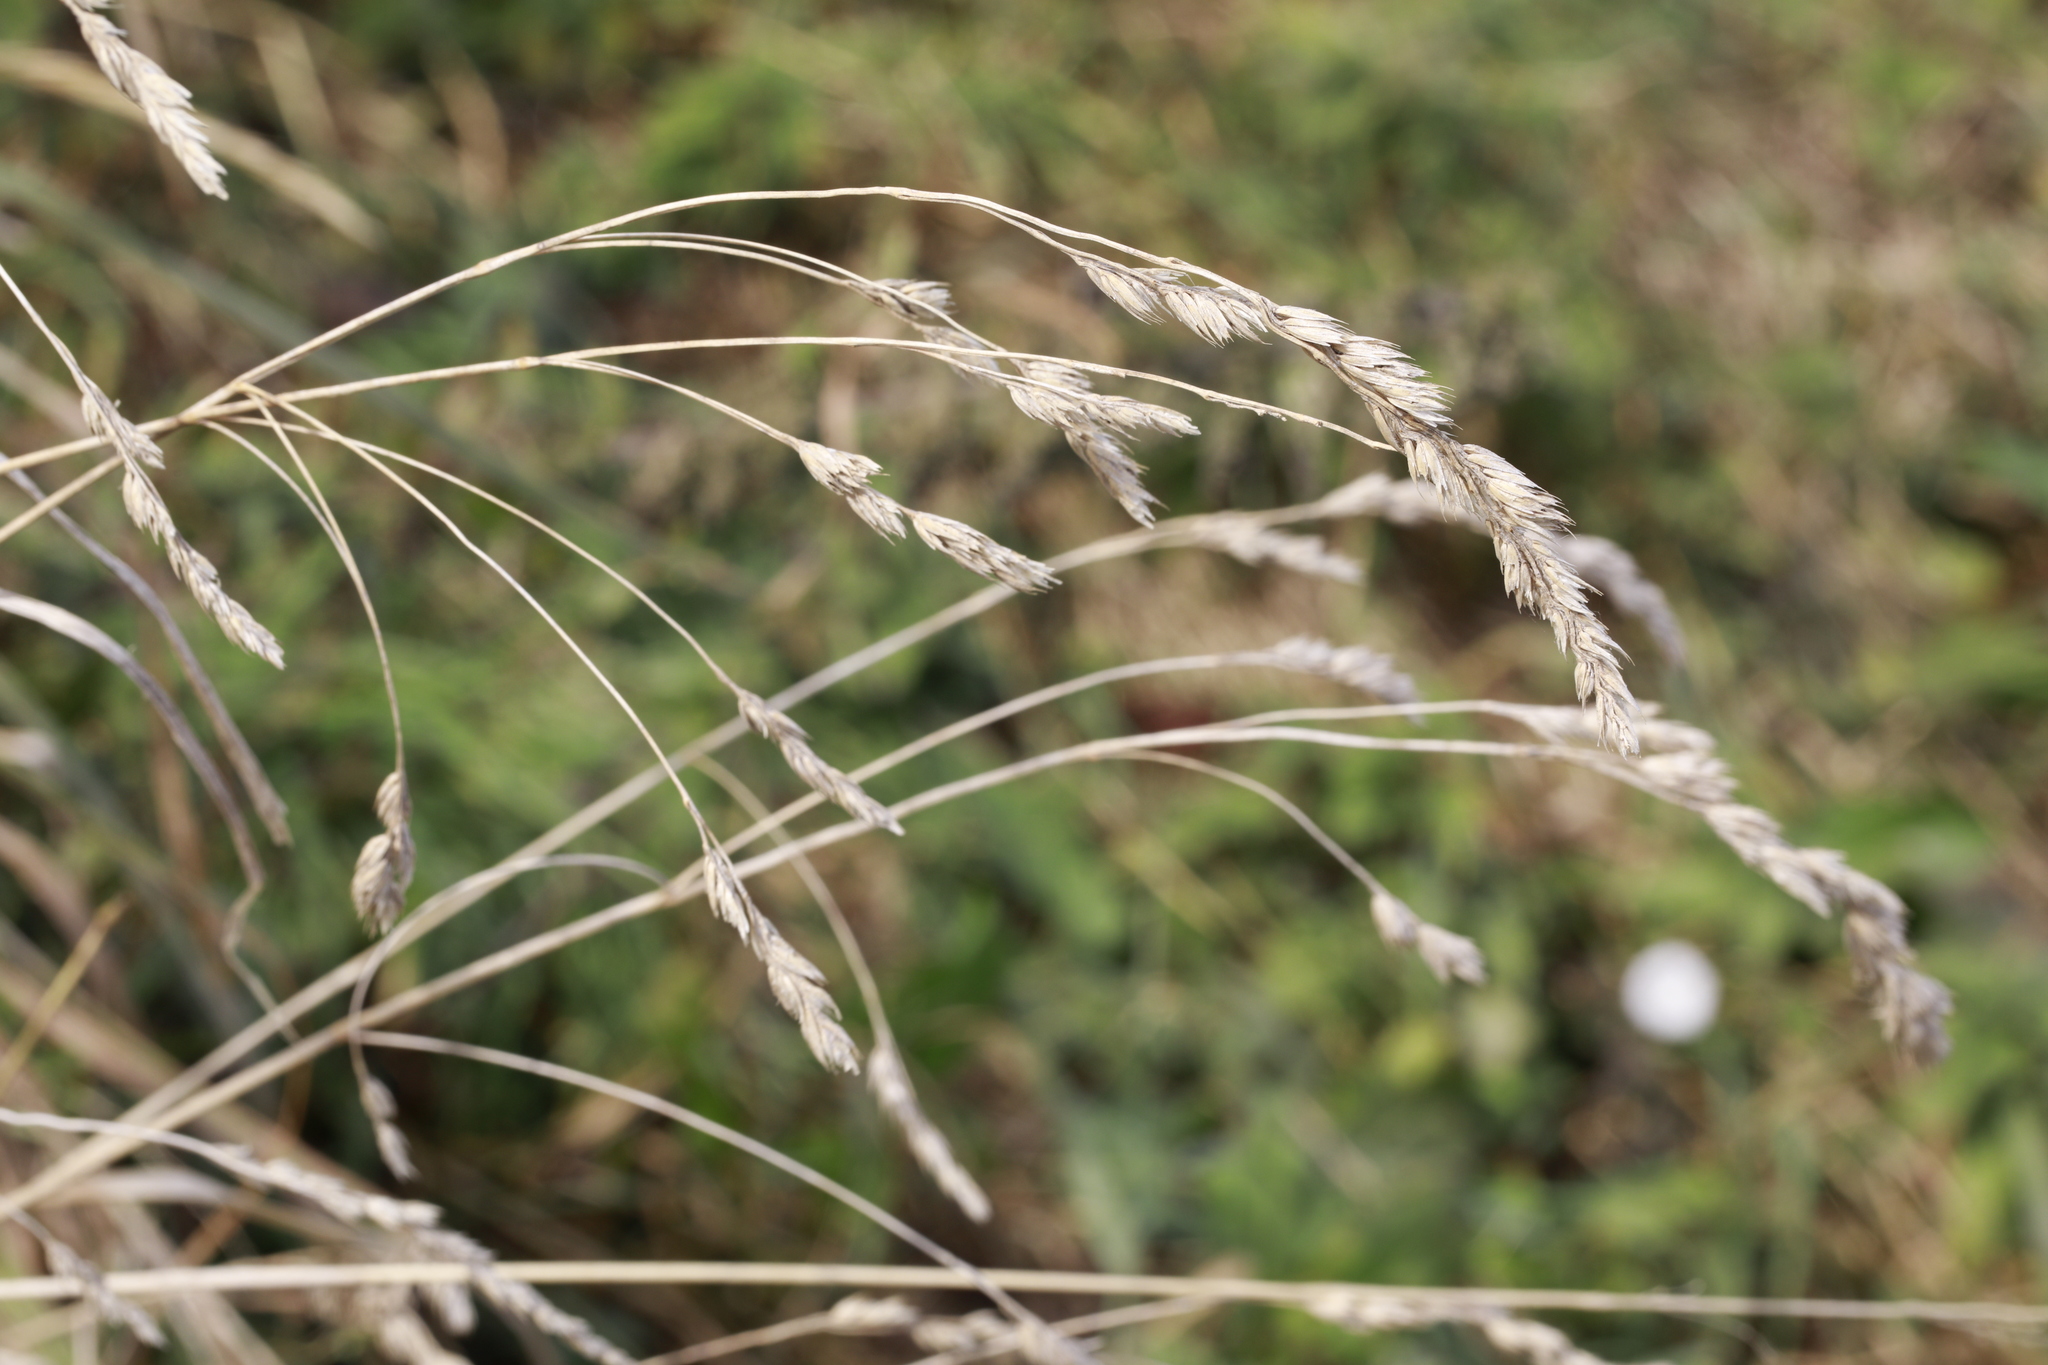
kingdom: Plantae
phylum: Tracheophyta
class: Liliopsida
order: Poales
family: Poaceae
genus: Dactylis
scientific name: Dactylis glomerata
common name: Orchardgrass
